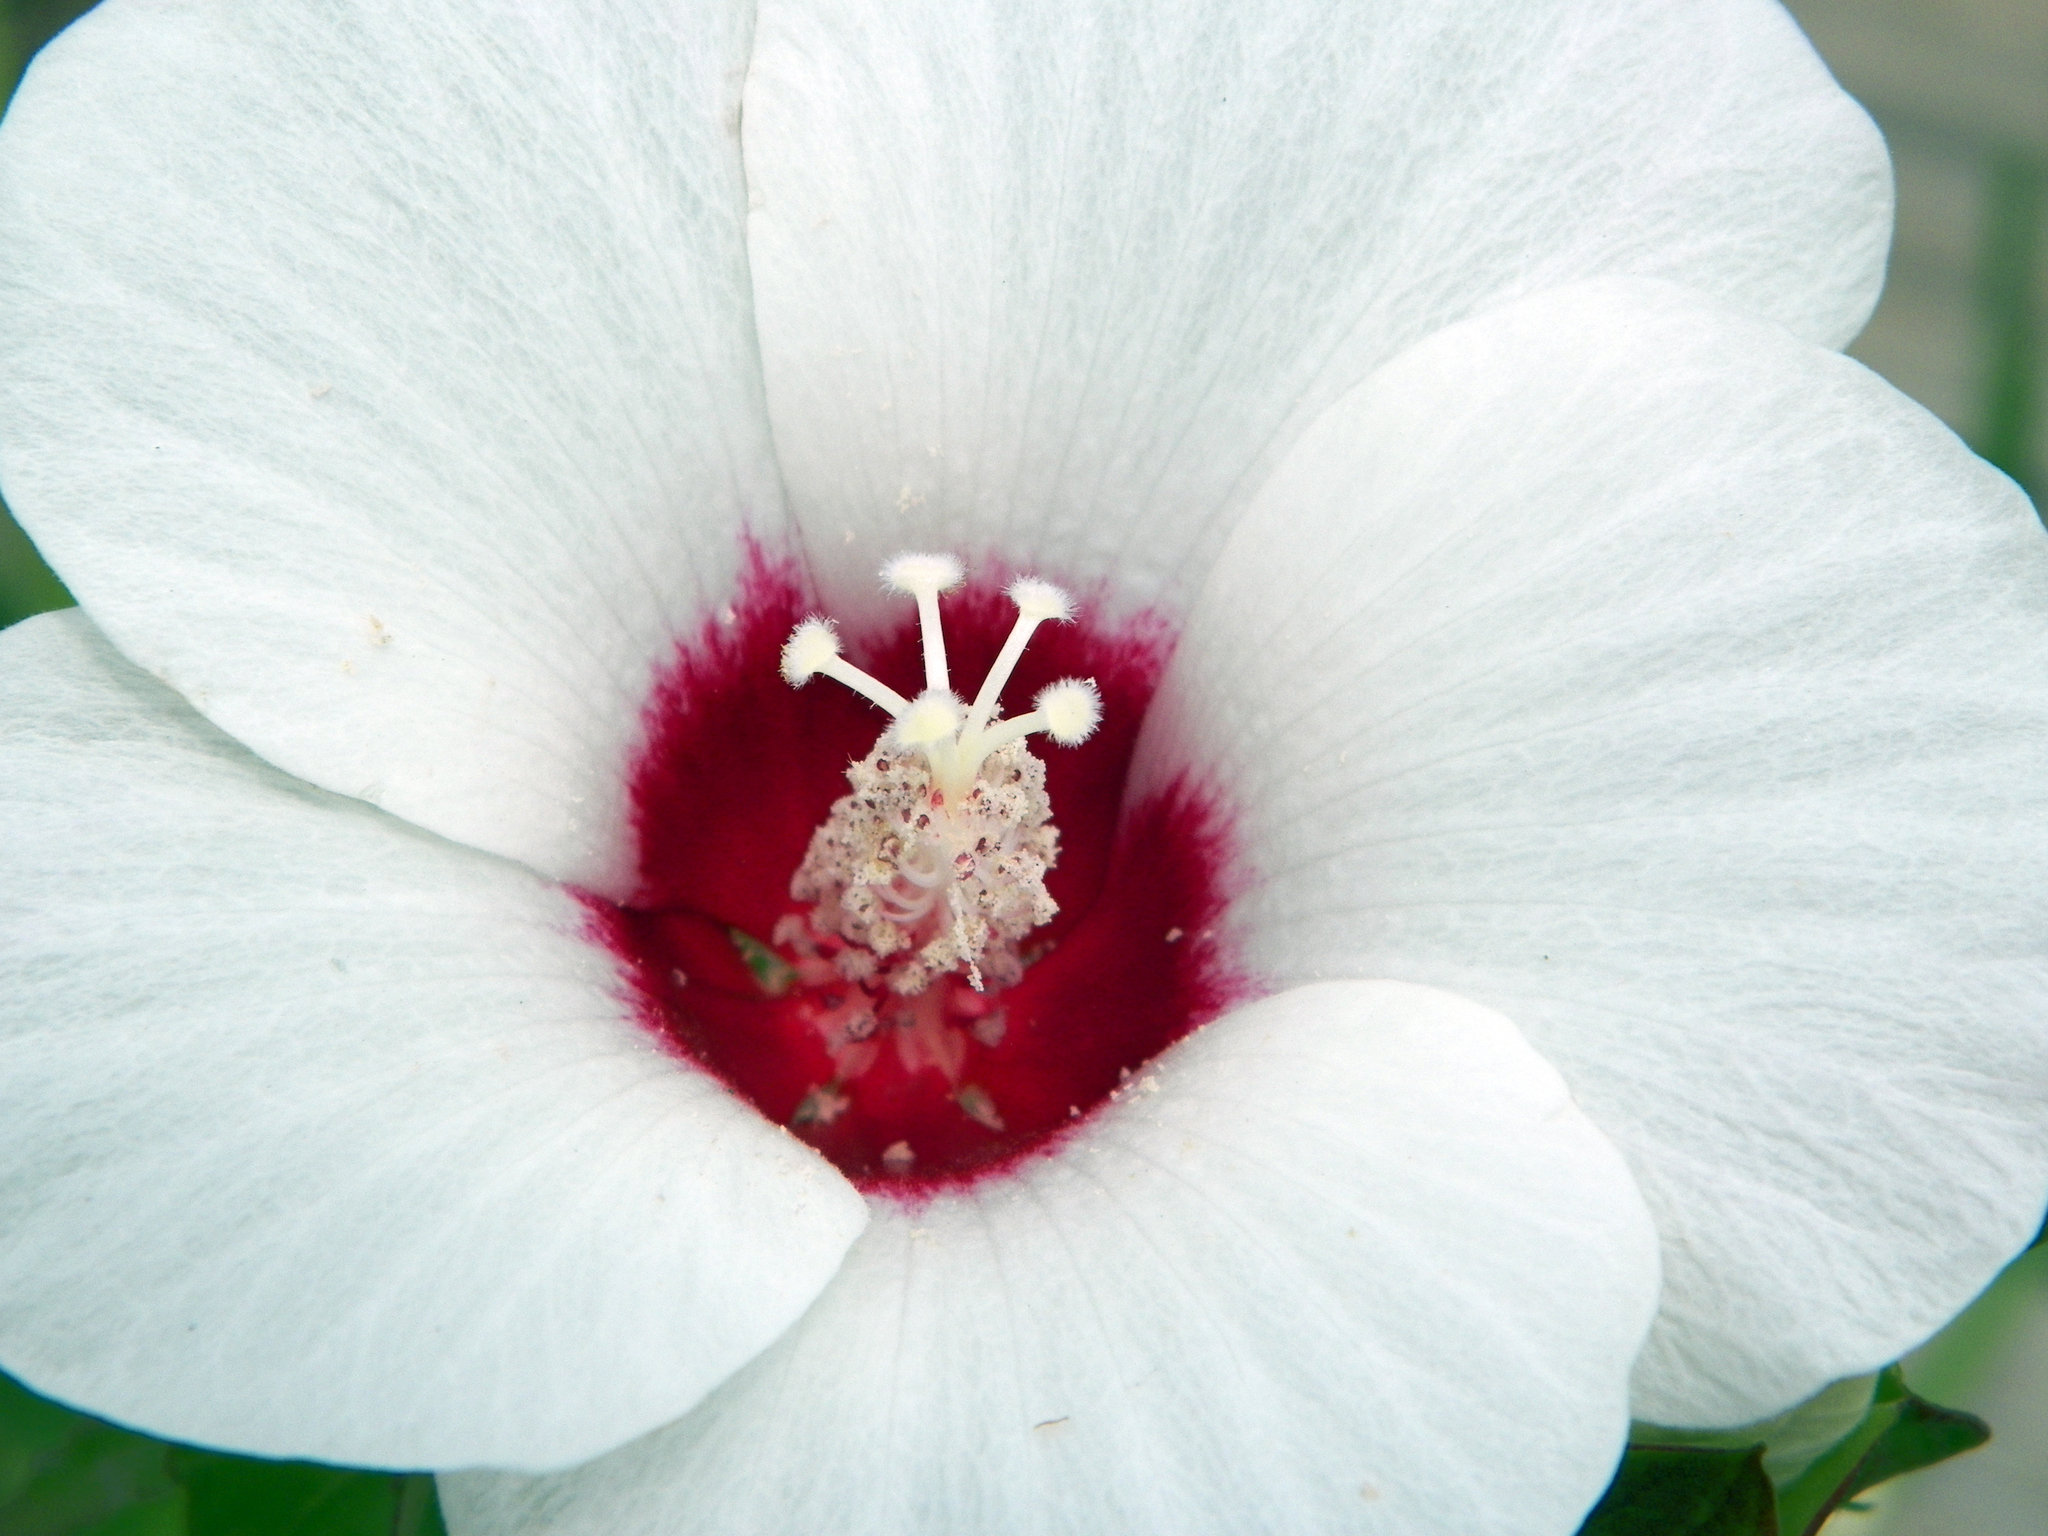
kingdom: Plantae
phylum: Tracheophyta
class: Magnoliopsida
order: Malvales
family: Malvaceae
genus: Hibiscus
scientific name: Hibiscus laevis
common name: Scarlet rose-mallow
